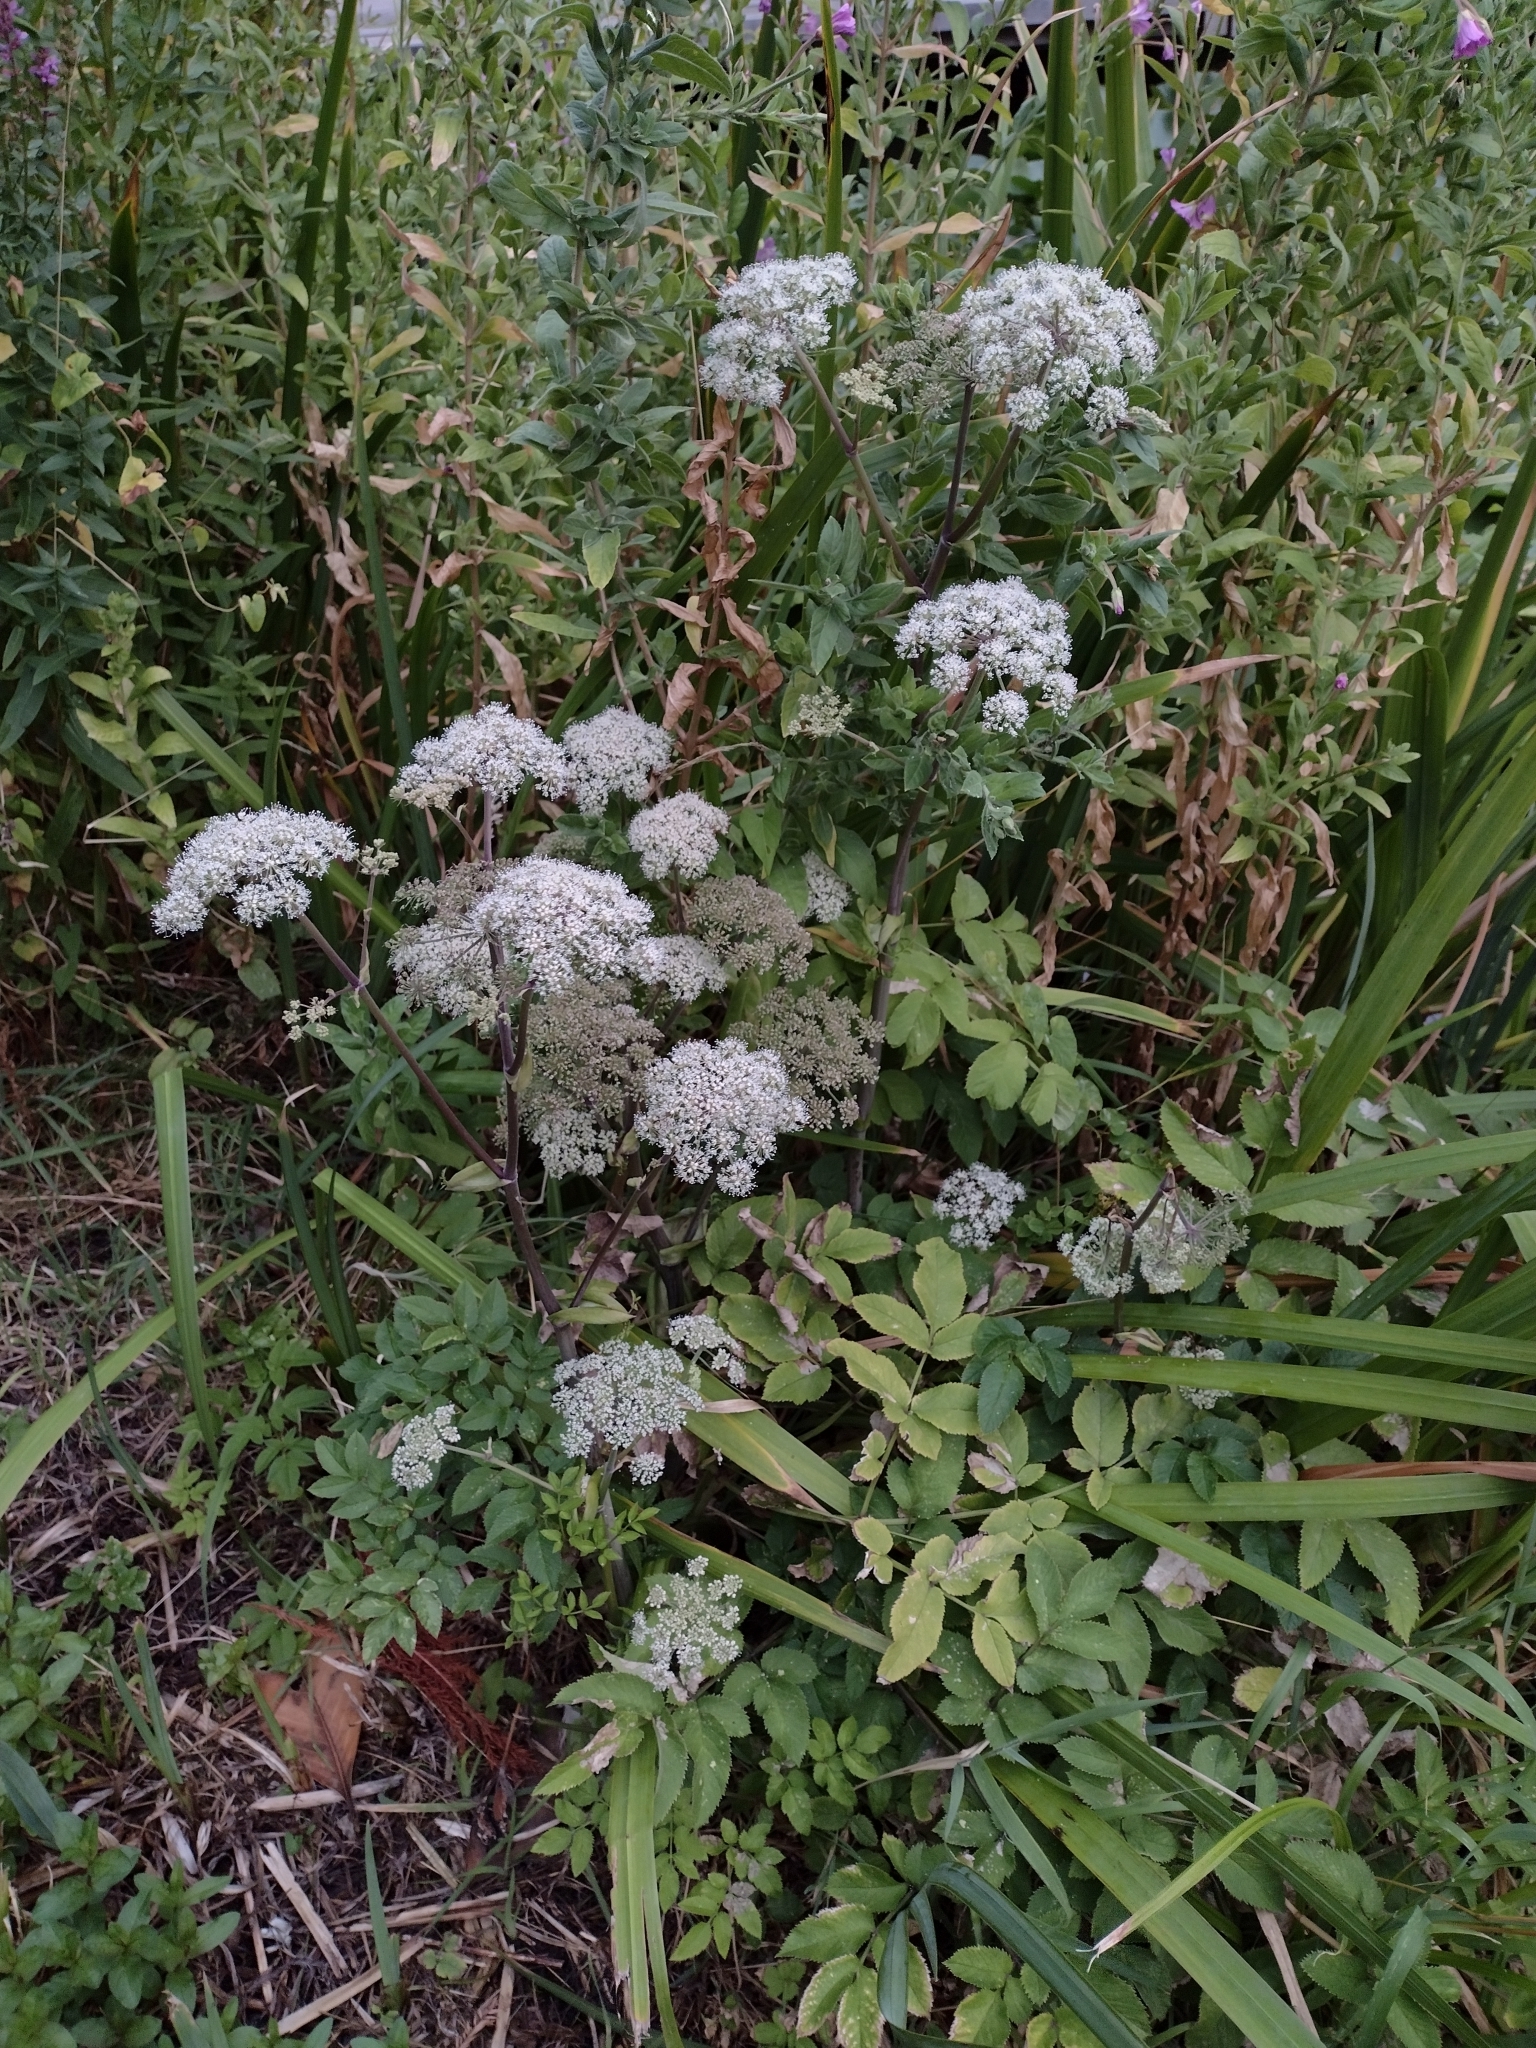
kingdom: Plantae
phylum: Tracheophyta
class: Magnoliopsida
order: Apiales
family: Apiaceae
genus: Angelica
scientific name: Angelica sylvestris
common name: Wild angelica
